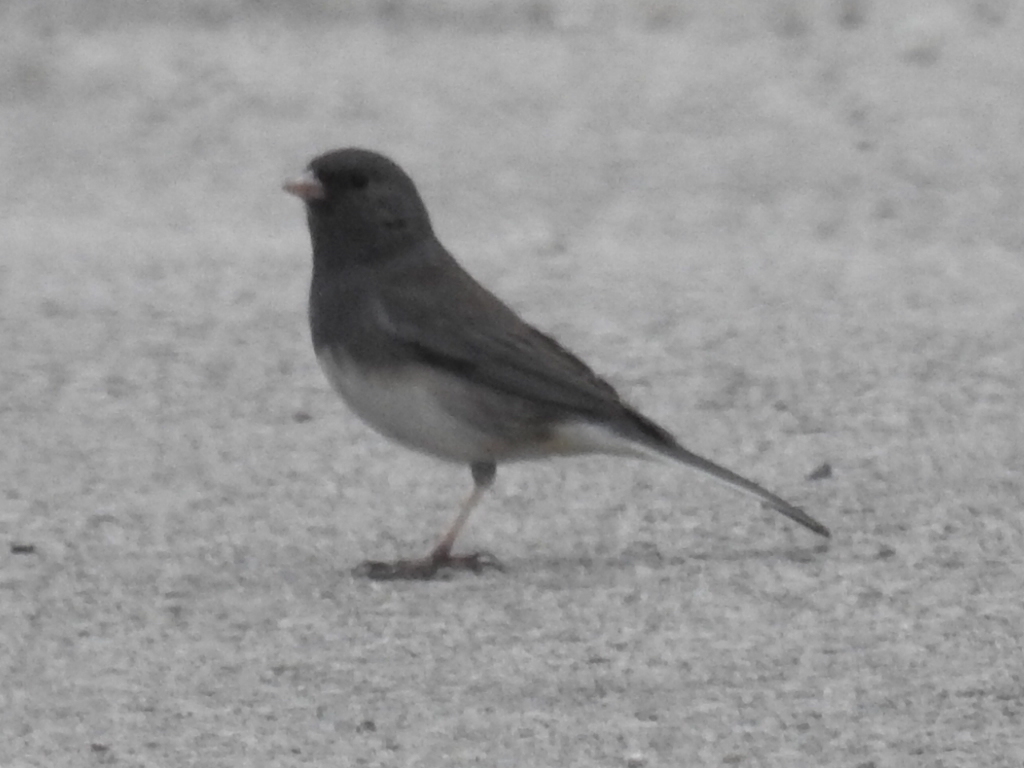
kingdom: Animalia
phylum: Chordata
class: Aves
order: Passeriformes
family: Passerellidae
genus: Junco
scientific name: Junco hyemalis
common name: Dark-eyed junco
